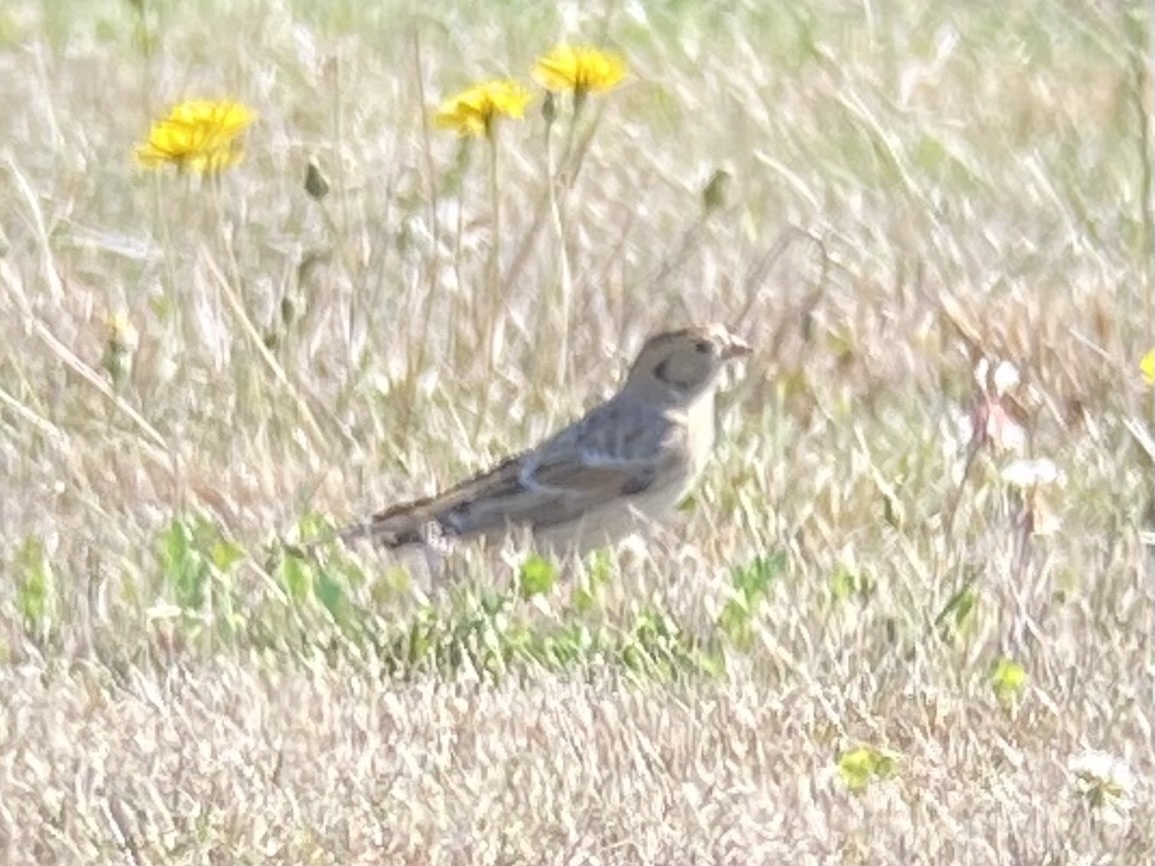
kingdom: Animalia
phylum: Chordata
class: Aves
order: Passeriformes
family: Calcariidae
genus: Calcarius
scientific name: Calcarius lapponicus
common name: Lapland longspur
